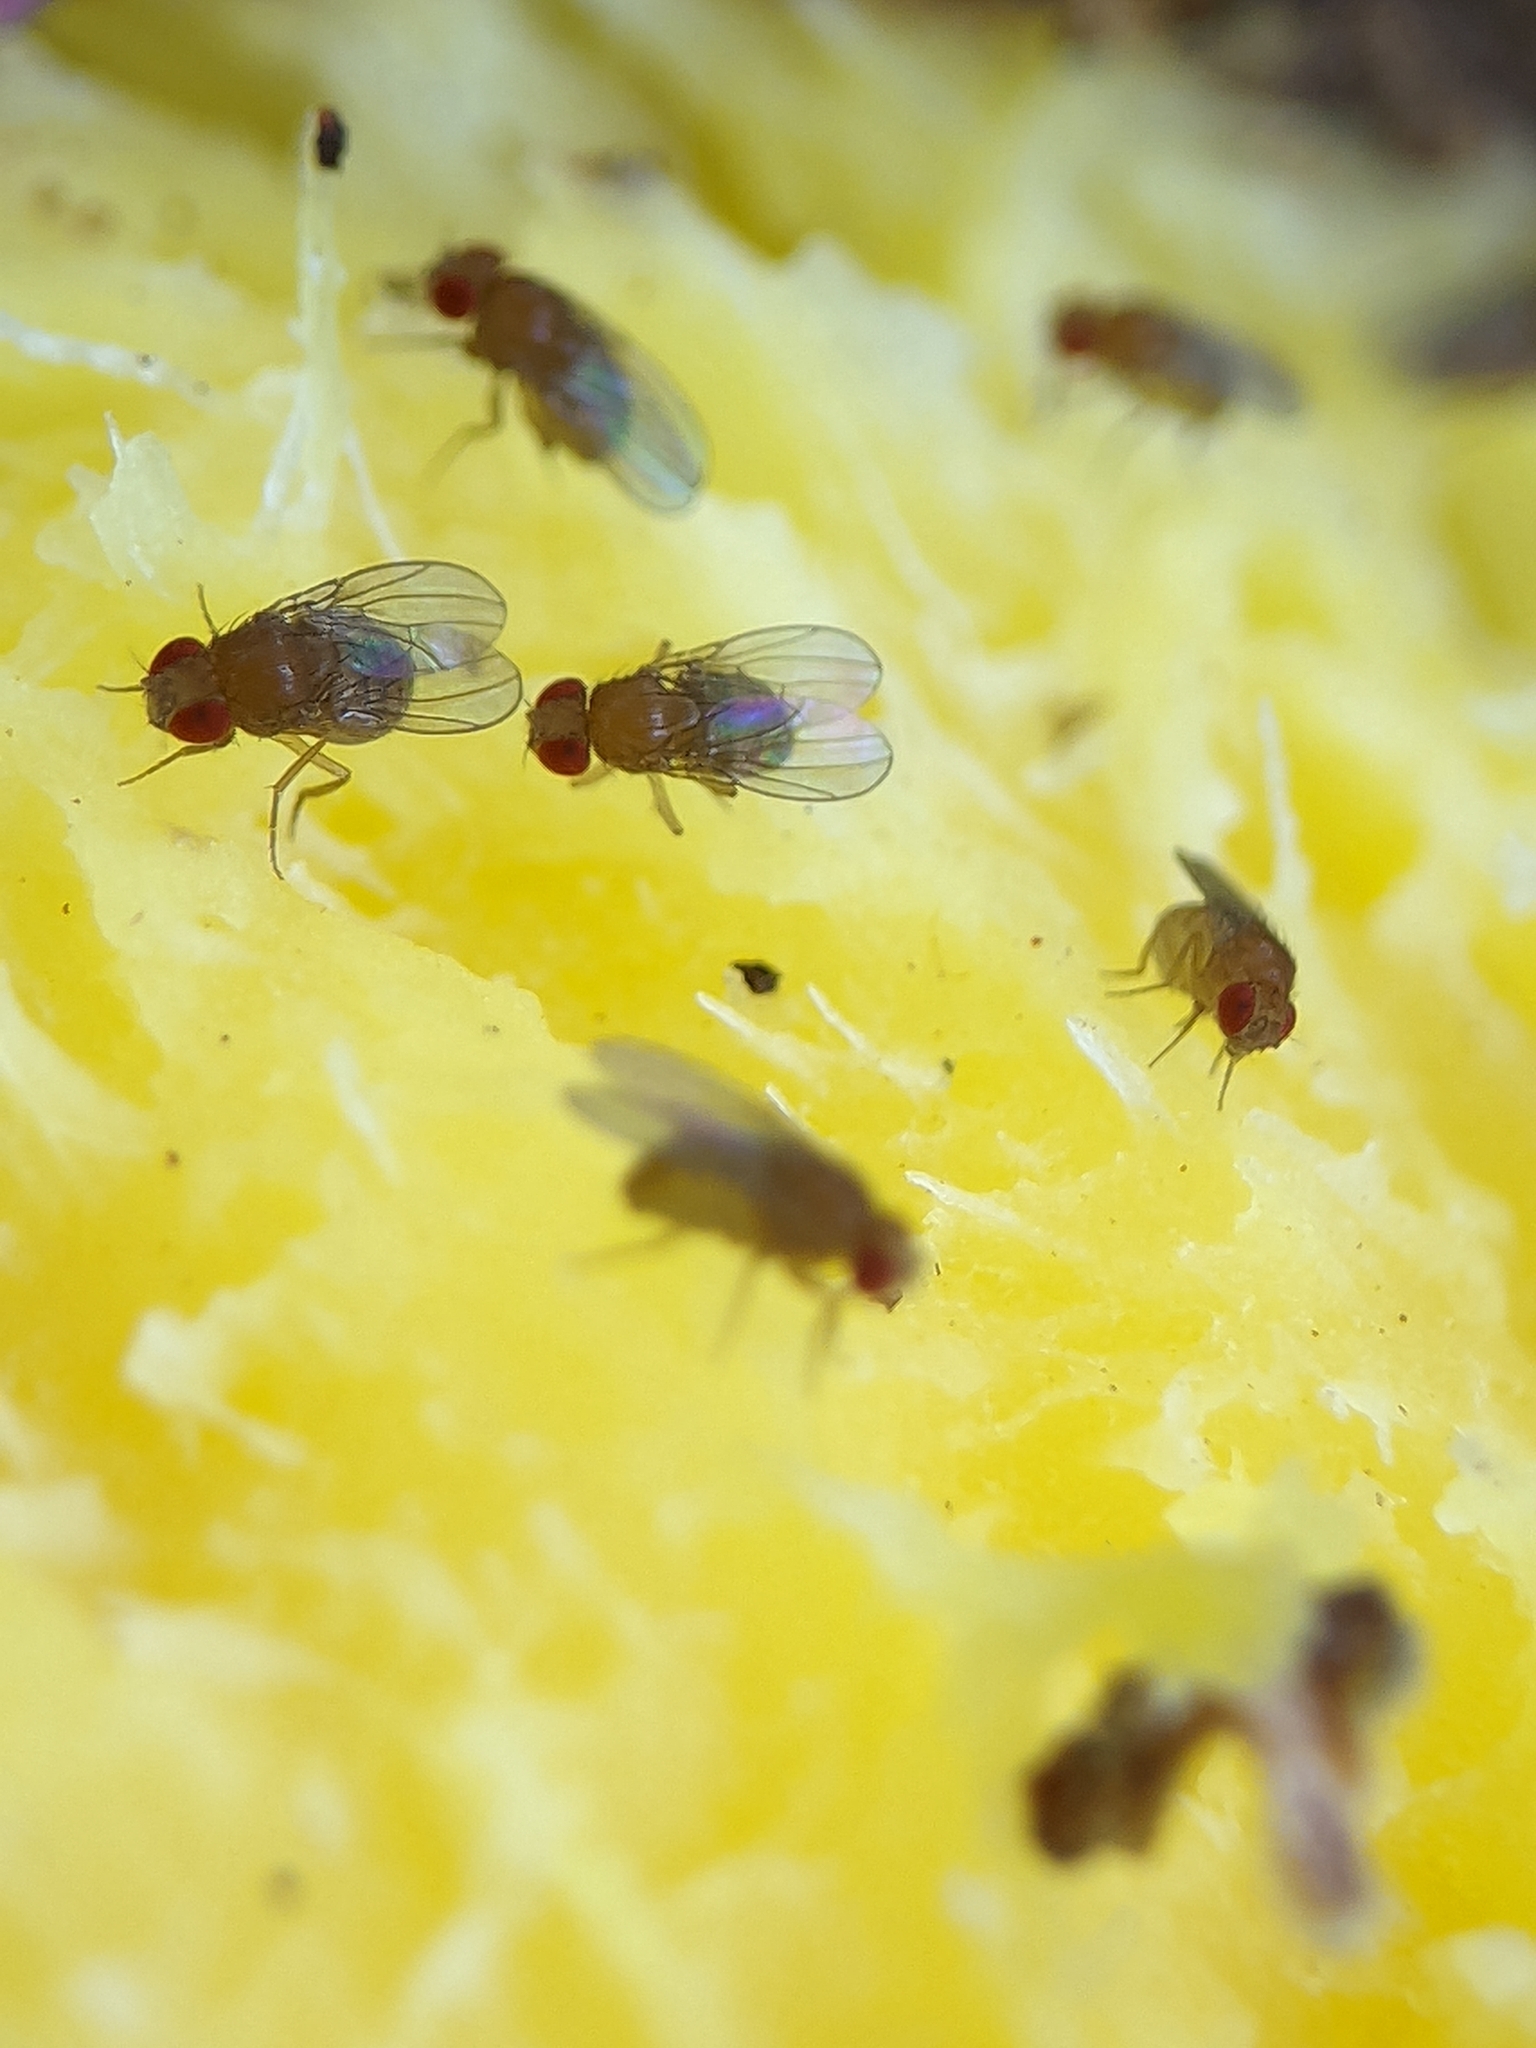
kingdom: Animalia
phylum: Arthropoda
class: Insecta
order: Diptera
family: Drosophilidae
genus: Drosophila
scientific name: Drosophila melanogaster
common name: Pomace fly
